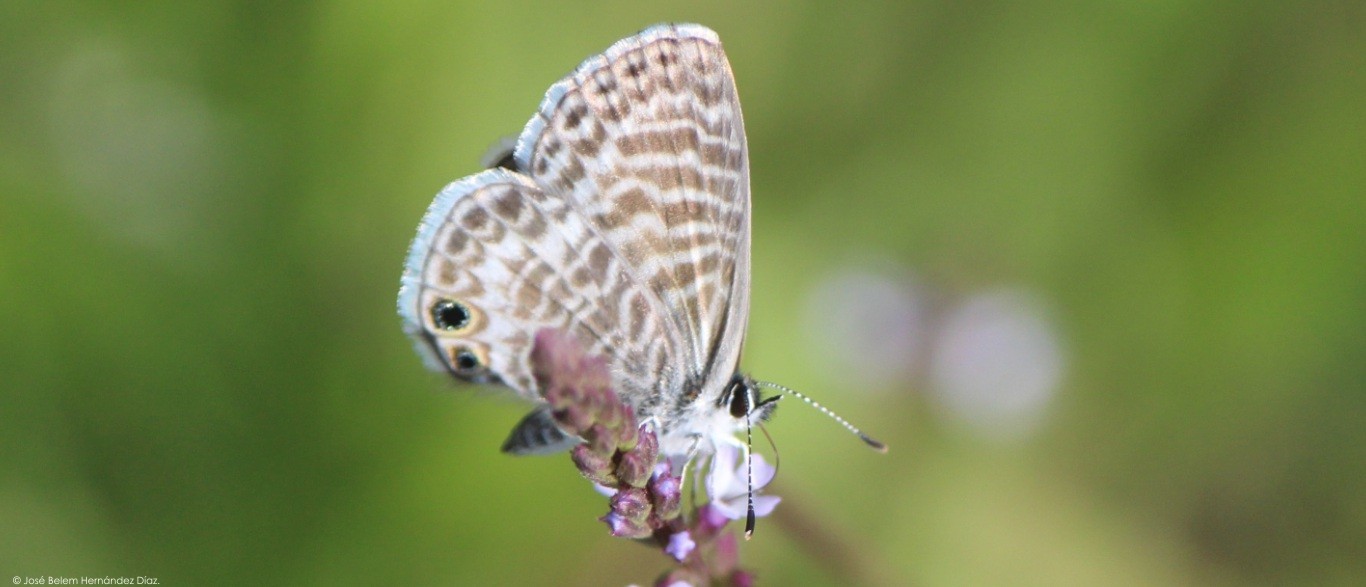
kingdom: Animalia
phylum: Arthropoda
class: Insecta
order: Lepidoptera
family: Lycaenidae
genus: Leptotes
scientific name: Leptotes marina
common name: Marine blue
